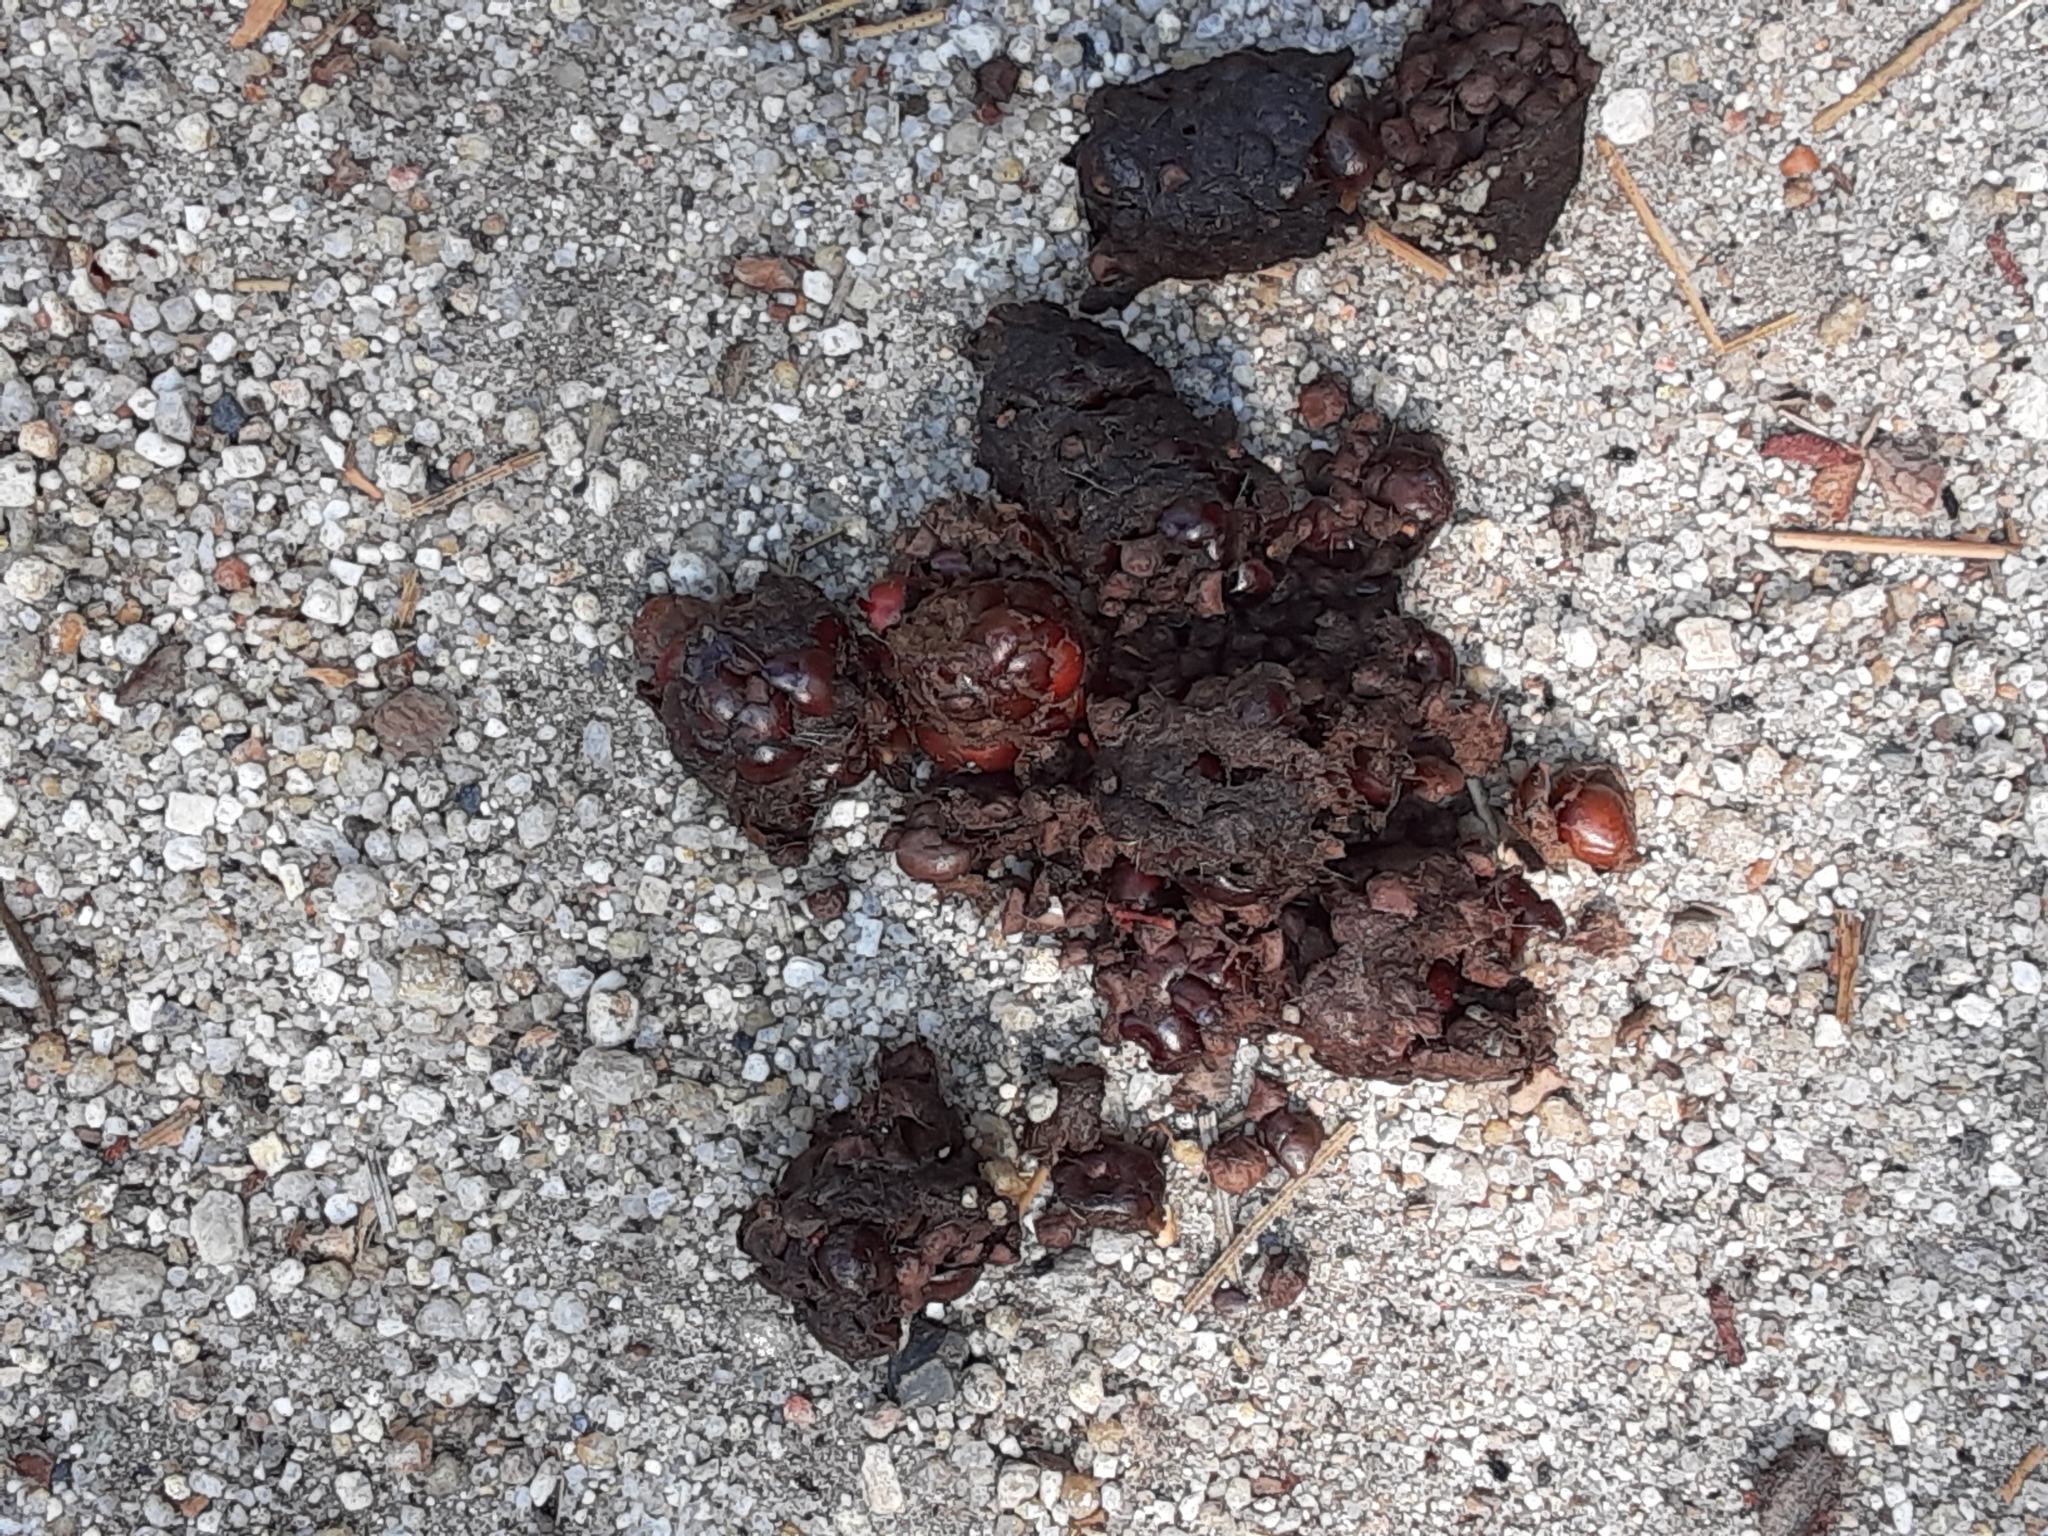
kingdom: Animalia
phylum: Chordata
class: Mammalia
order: Carnivora
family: Canidae
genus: Urocyon
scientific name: Urocyon cinereoargenteus
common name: Gray fox
